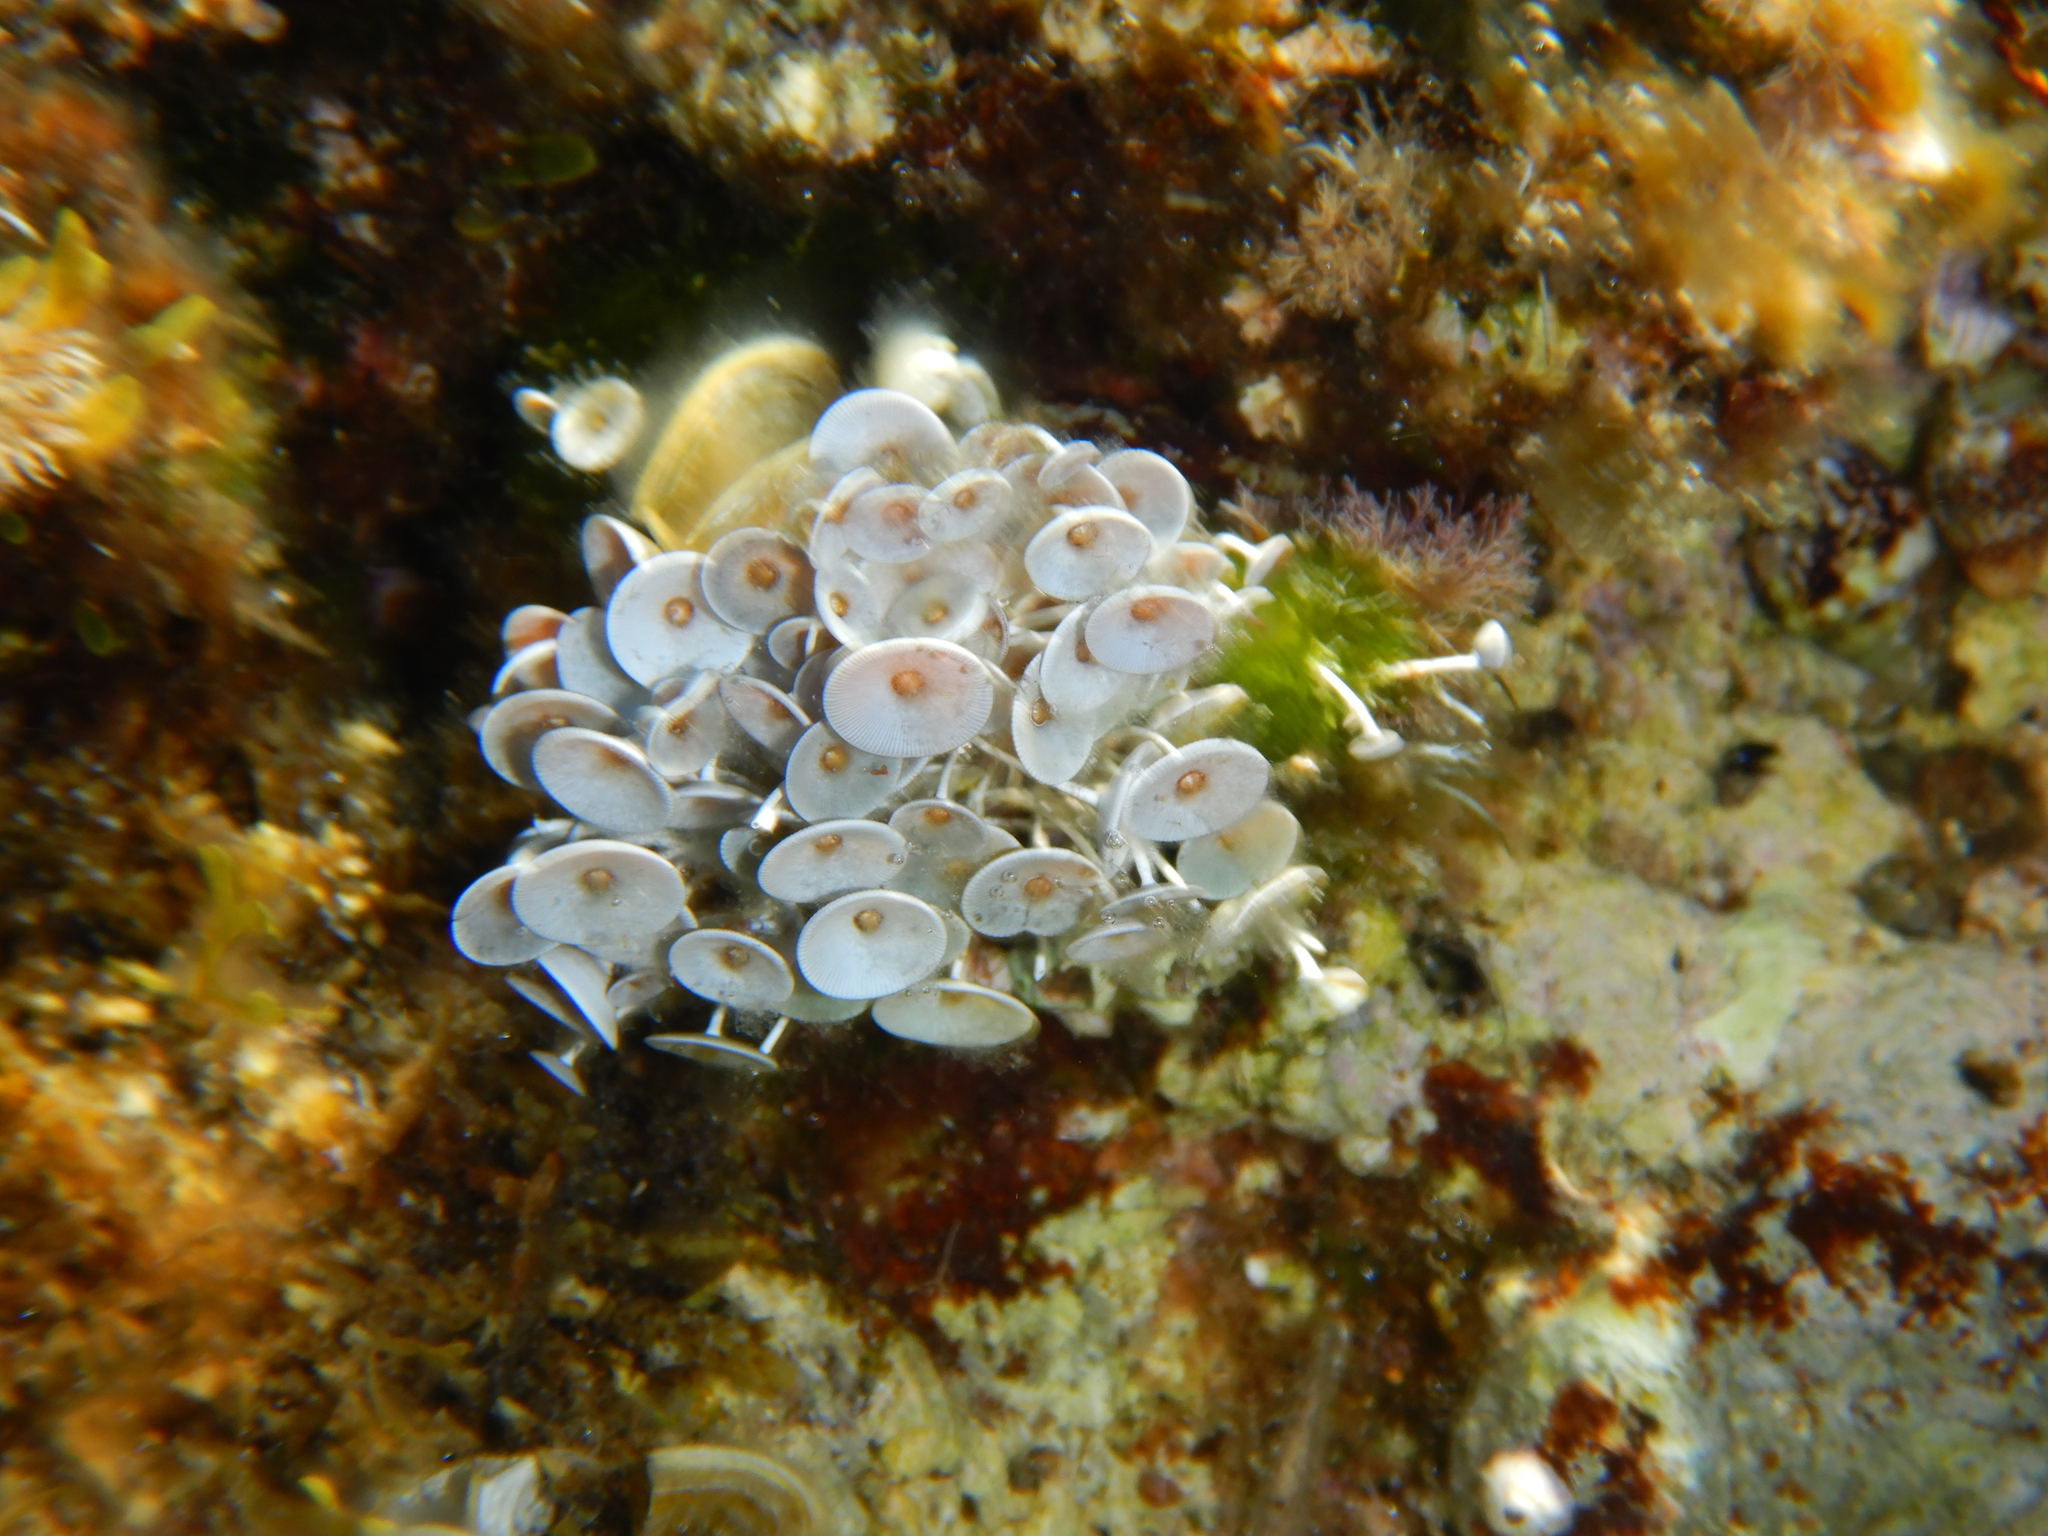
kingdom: Plantae
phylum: Chlorophyta
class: Ulvophyceae
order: Dasycladales
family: Polyphysaceae
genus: Acetabularia
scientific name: Acetabularia acetabulum
